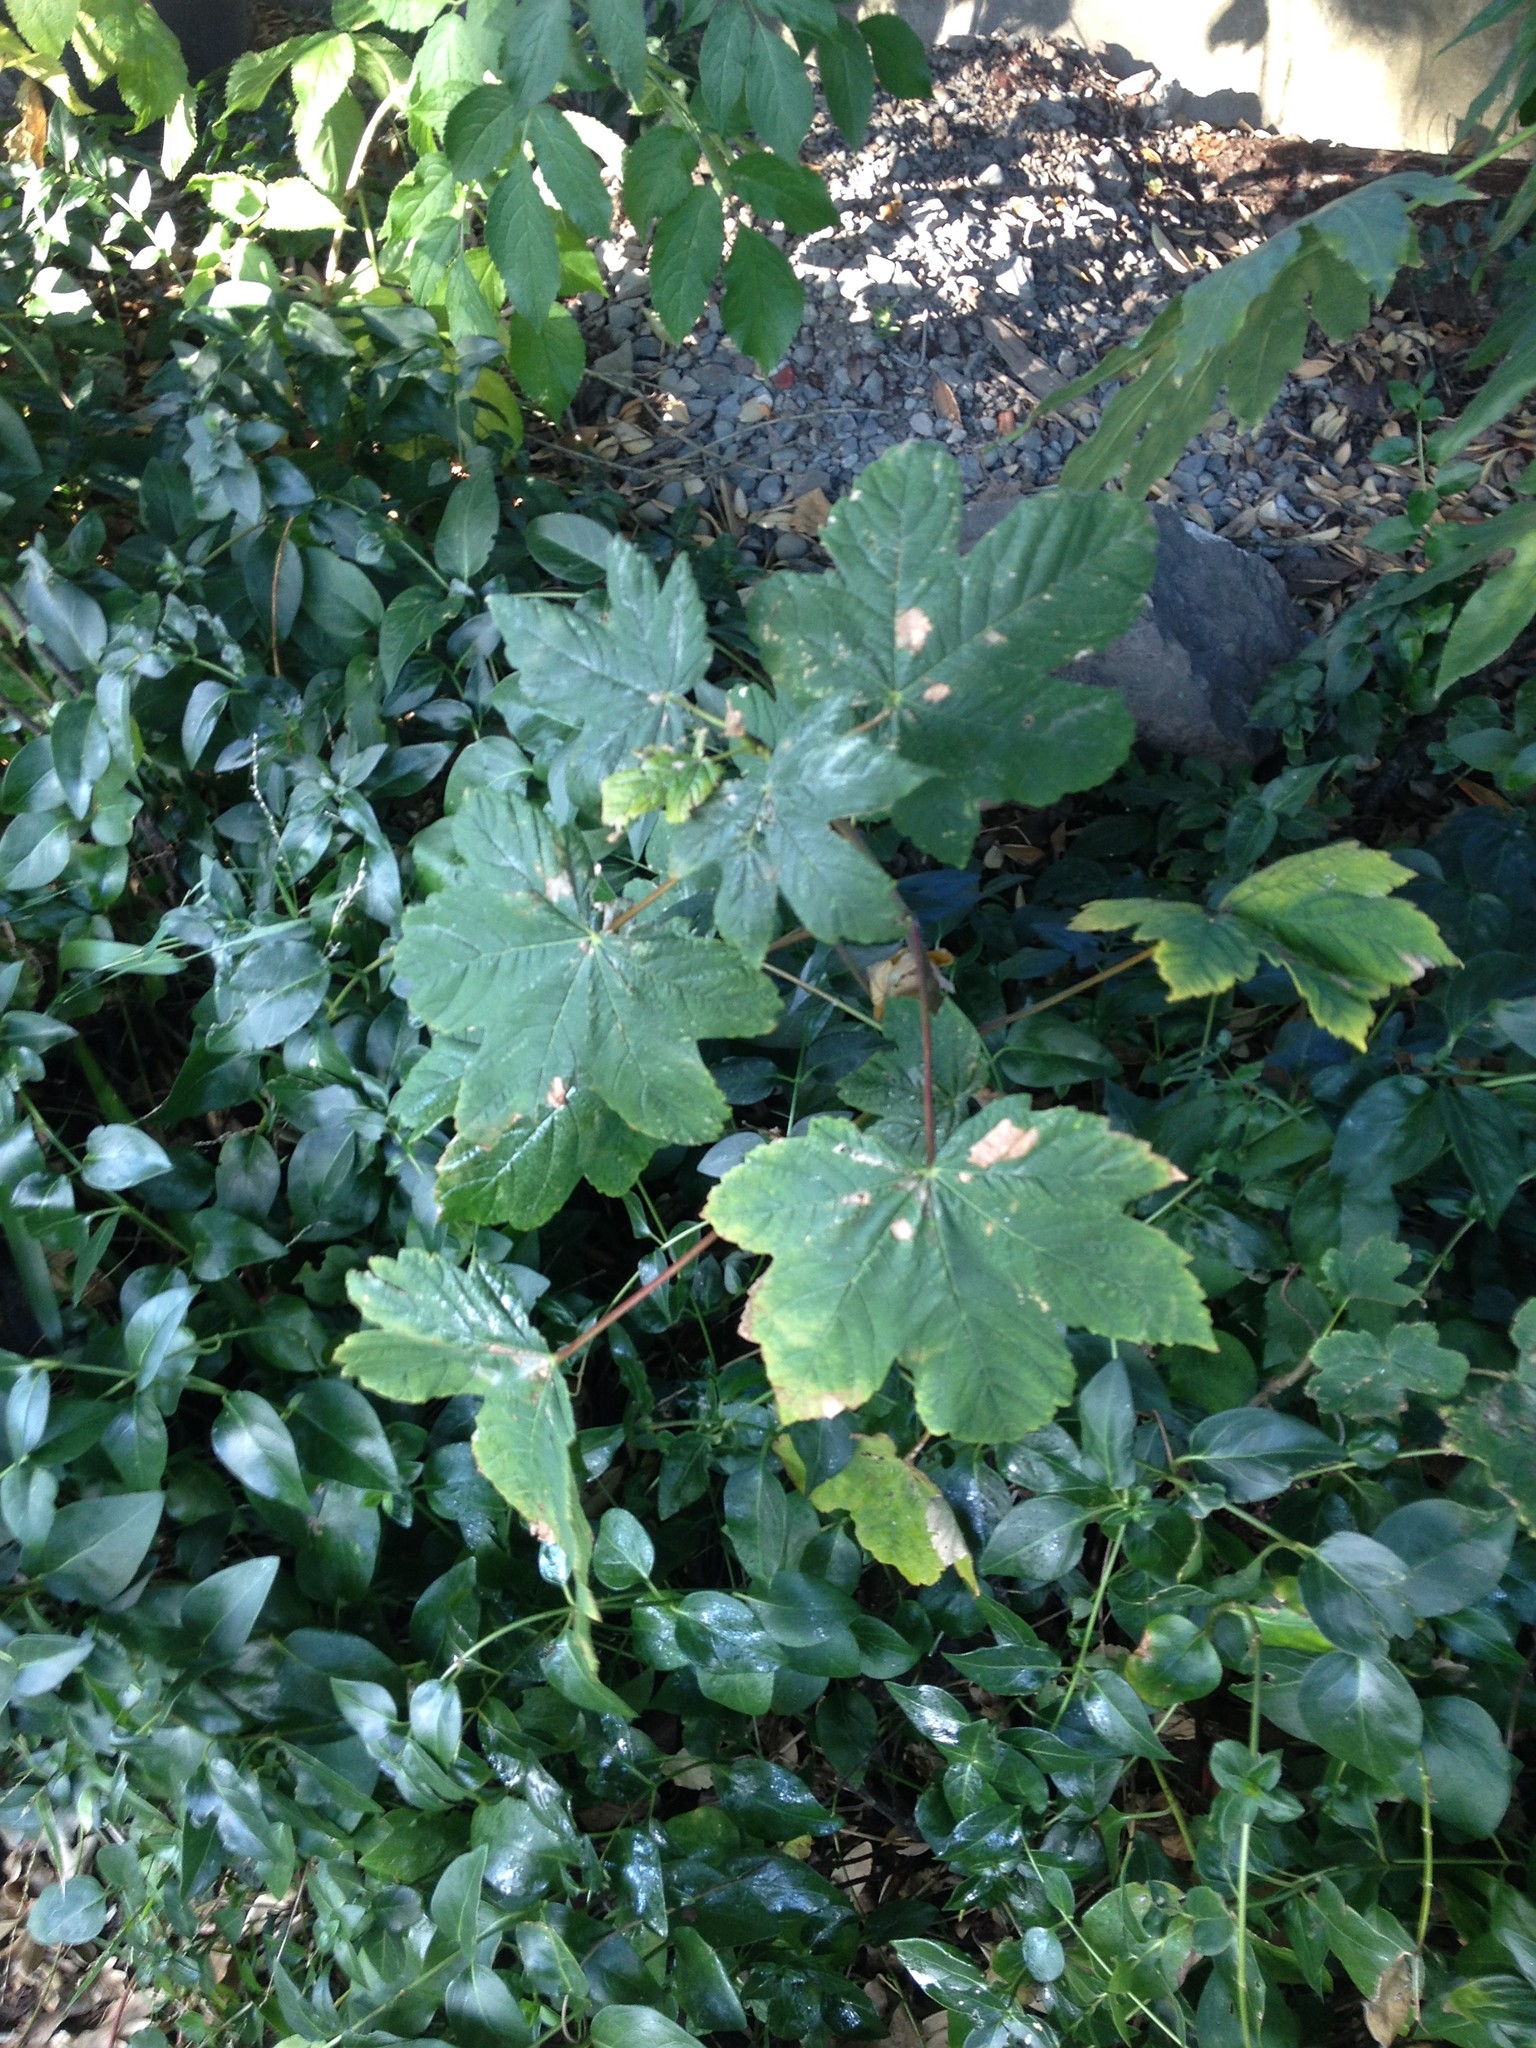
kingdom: Plantae
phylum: Tracheophyta
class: Magnoliopsida
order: Sapindales
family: Sapindaceae
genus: Acer
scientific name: Acer pseudoplatanus
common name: Sycamore
